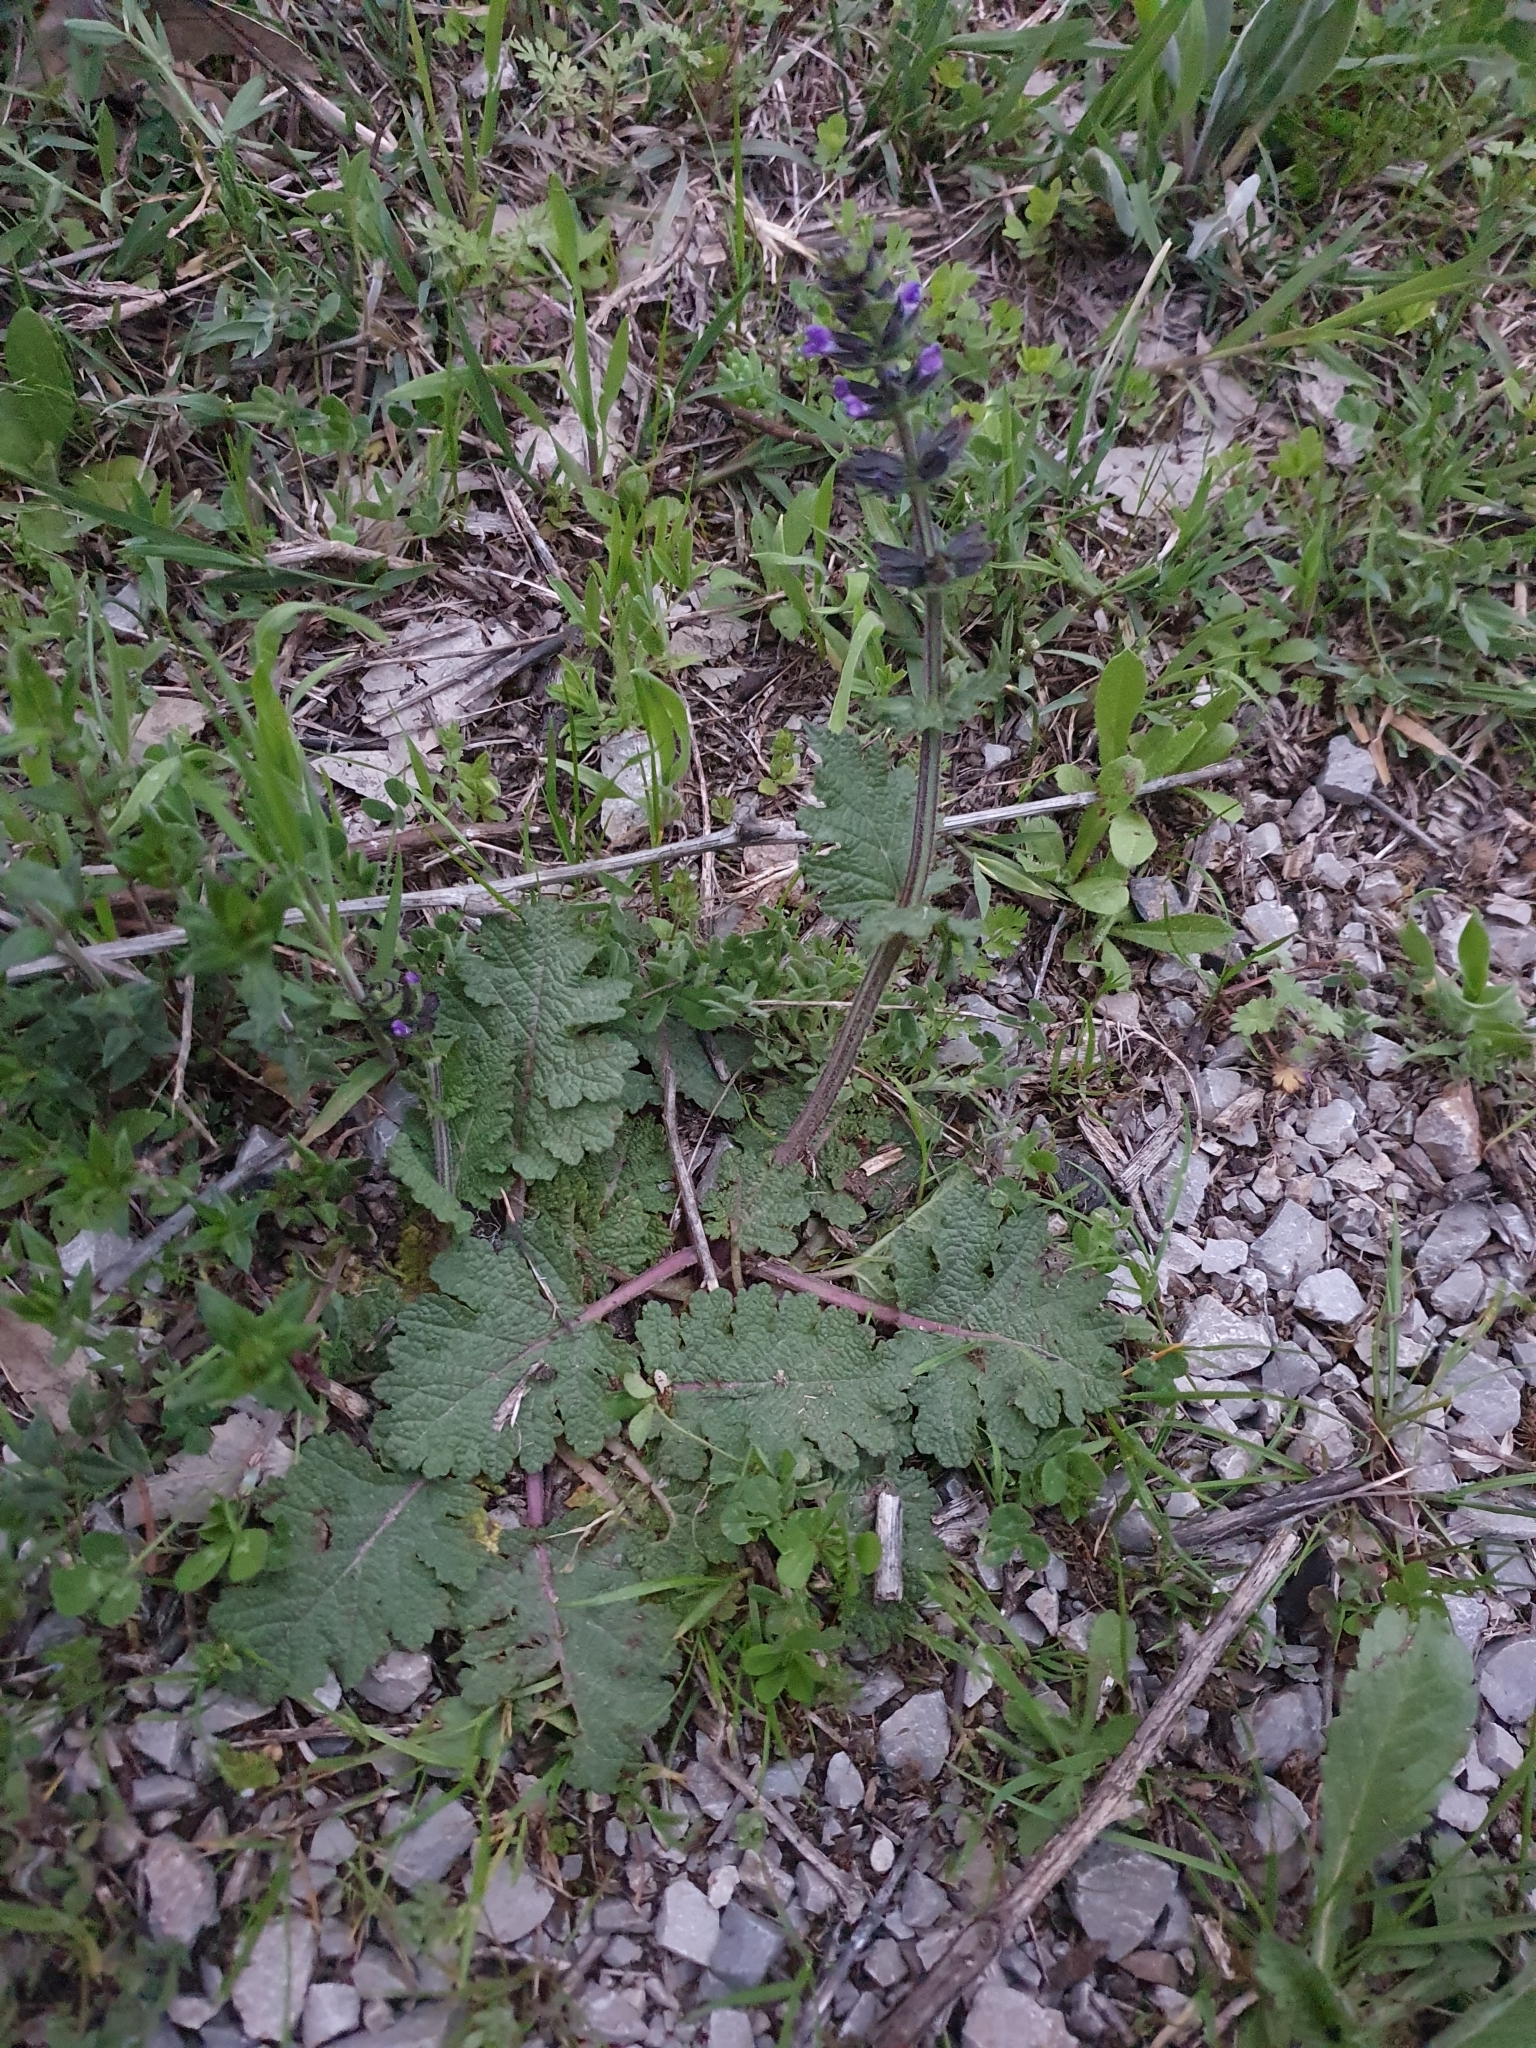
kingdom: Plantae
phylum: Tracheophyta
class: Magnoliopsida
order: Lamiales
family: Lamiaceae
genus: Salvia
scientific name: Salvia verbenaca
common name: Wild clary
